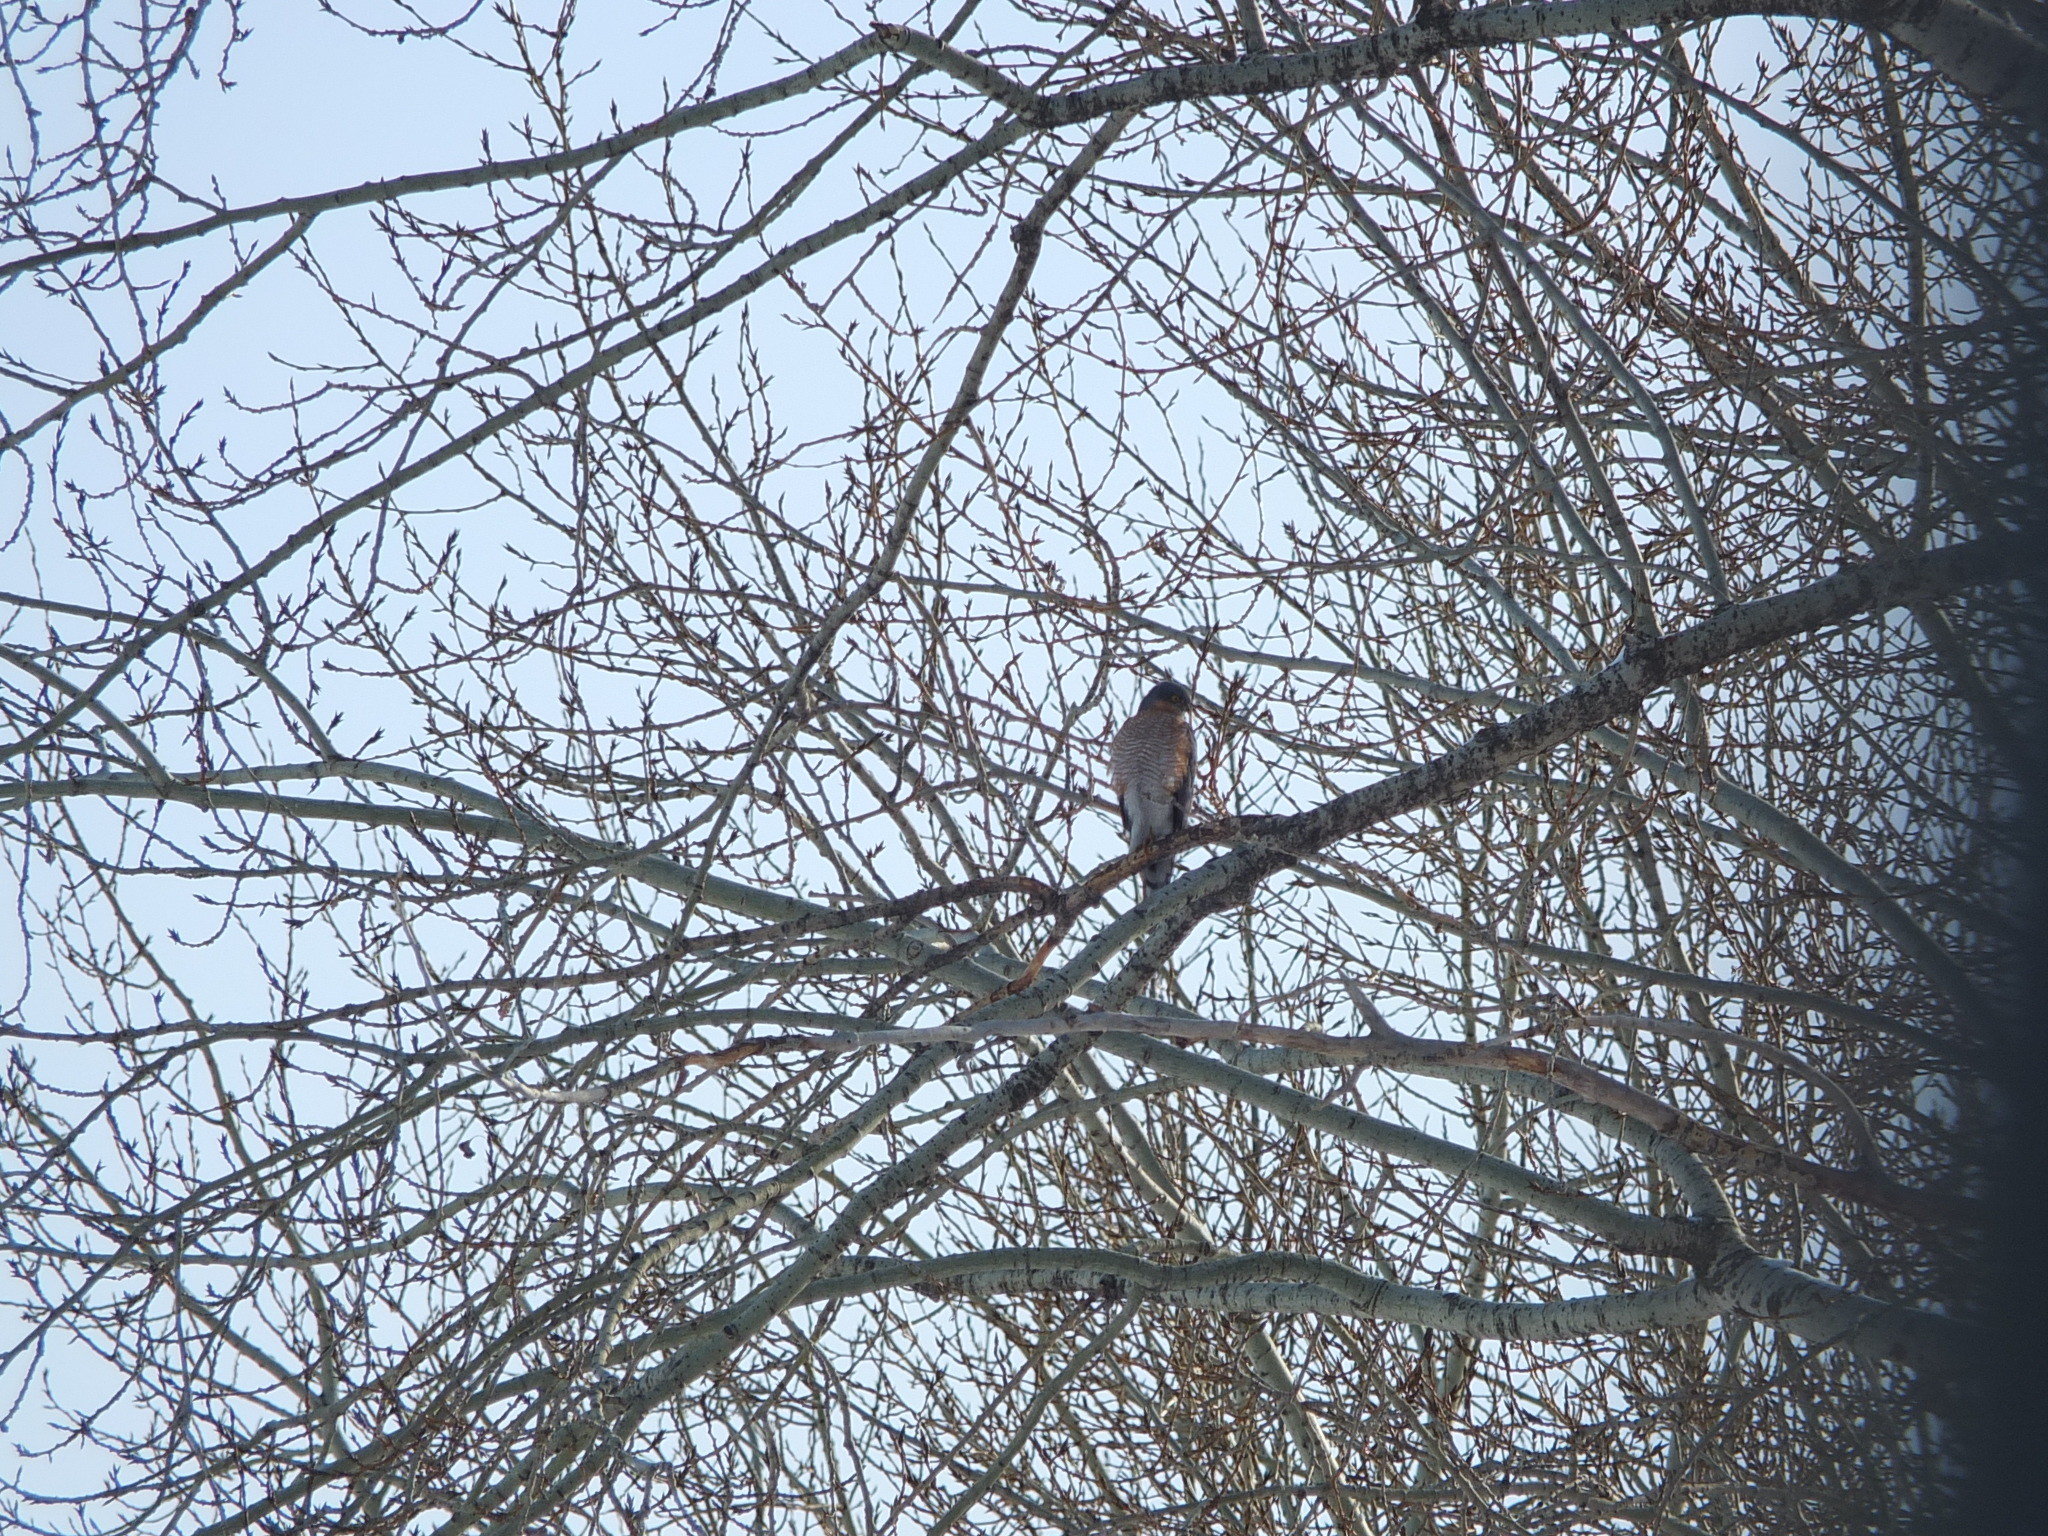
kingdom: Animalia
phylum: Chordata
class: Aves
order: Accipitriformes
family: Accipitridae
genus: Accipiter
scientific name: Accipiter nisus
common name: Eurasian sparrowhawk
